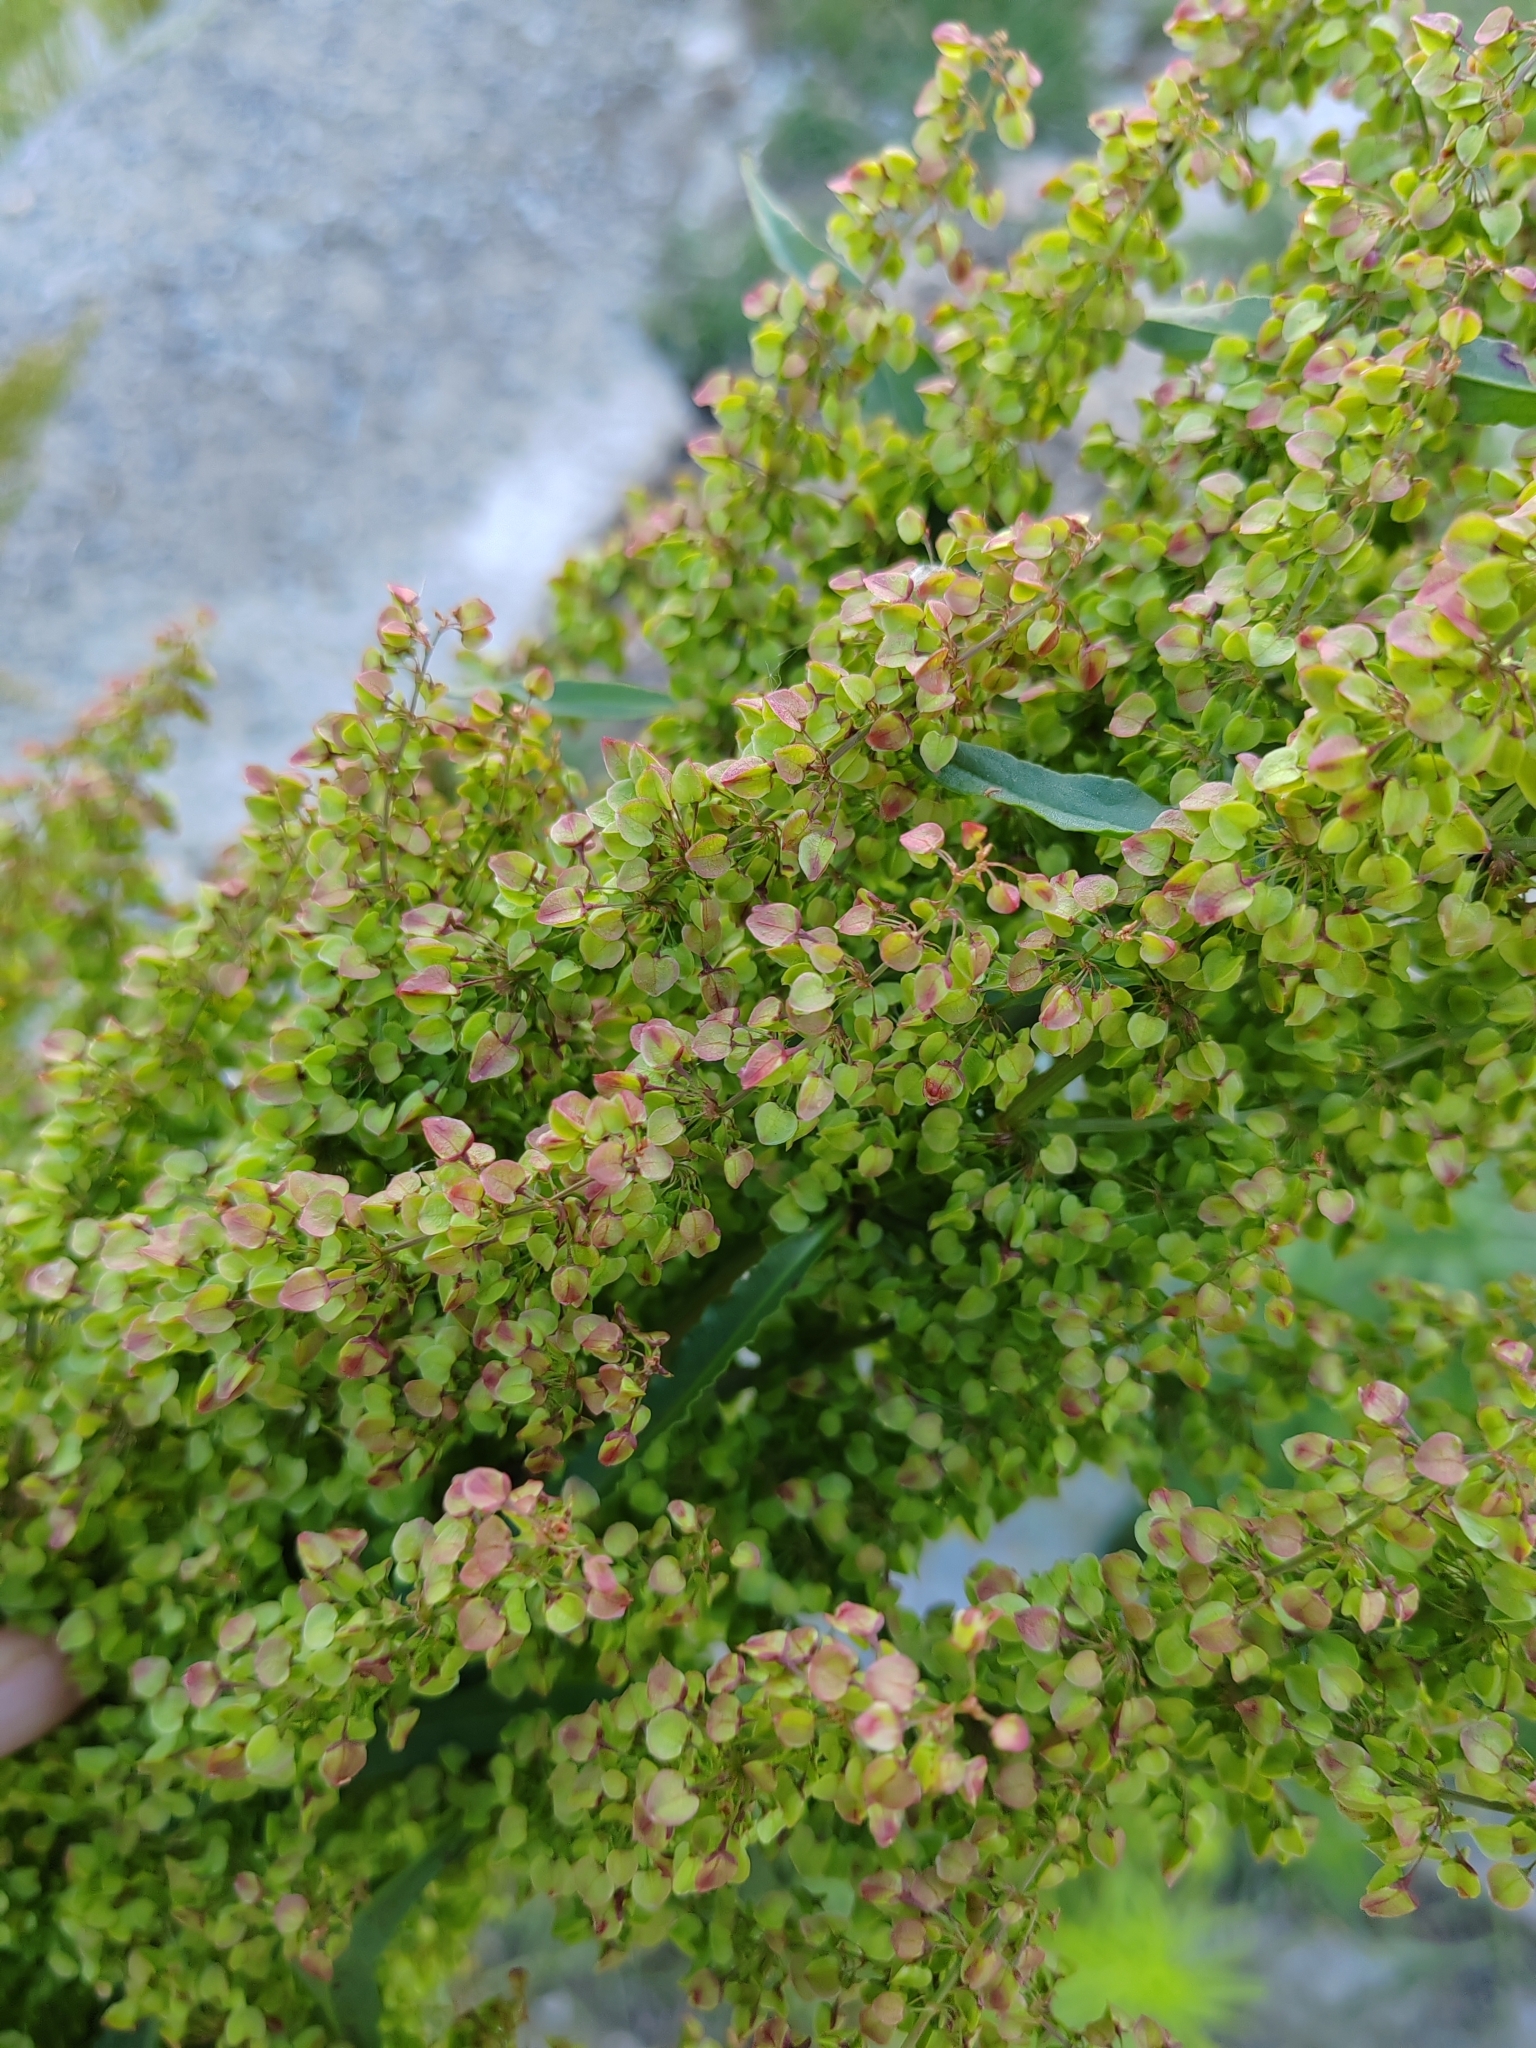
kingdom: Plantae
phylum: Tracheophyta
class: Magnoliopsida
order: Caryophyllales
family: Polygonaceae
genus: Rumex
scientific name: Rumex pseudonatronatus
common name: Field dock
